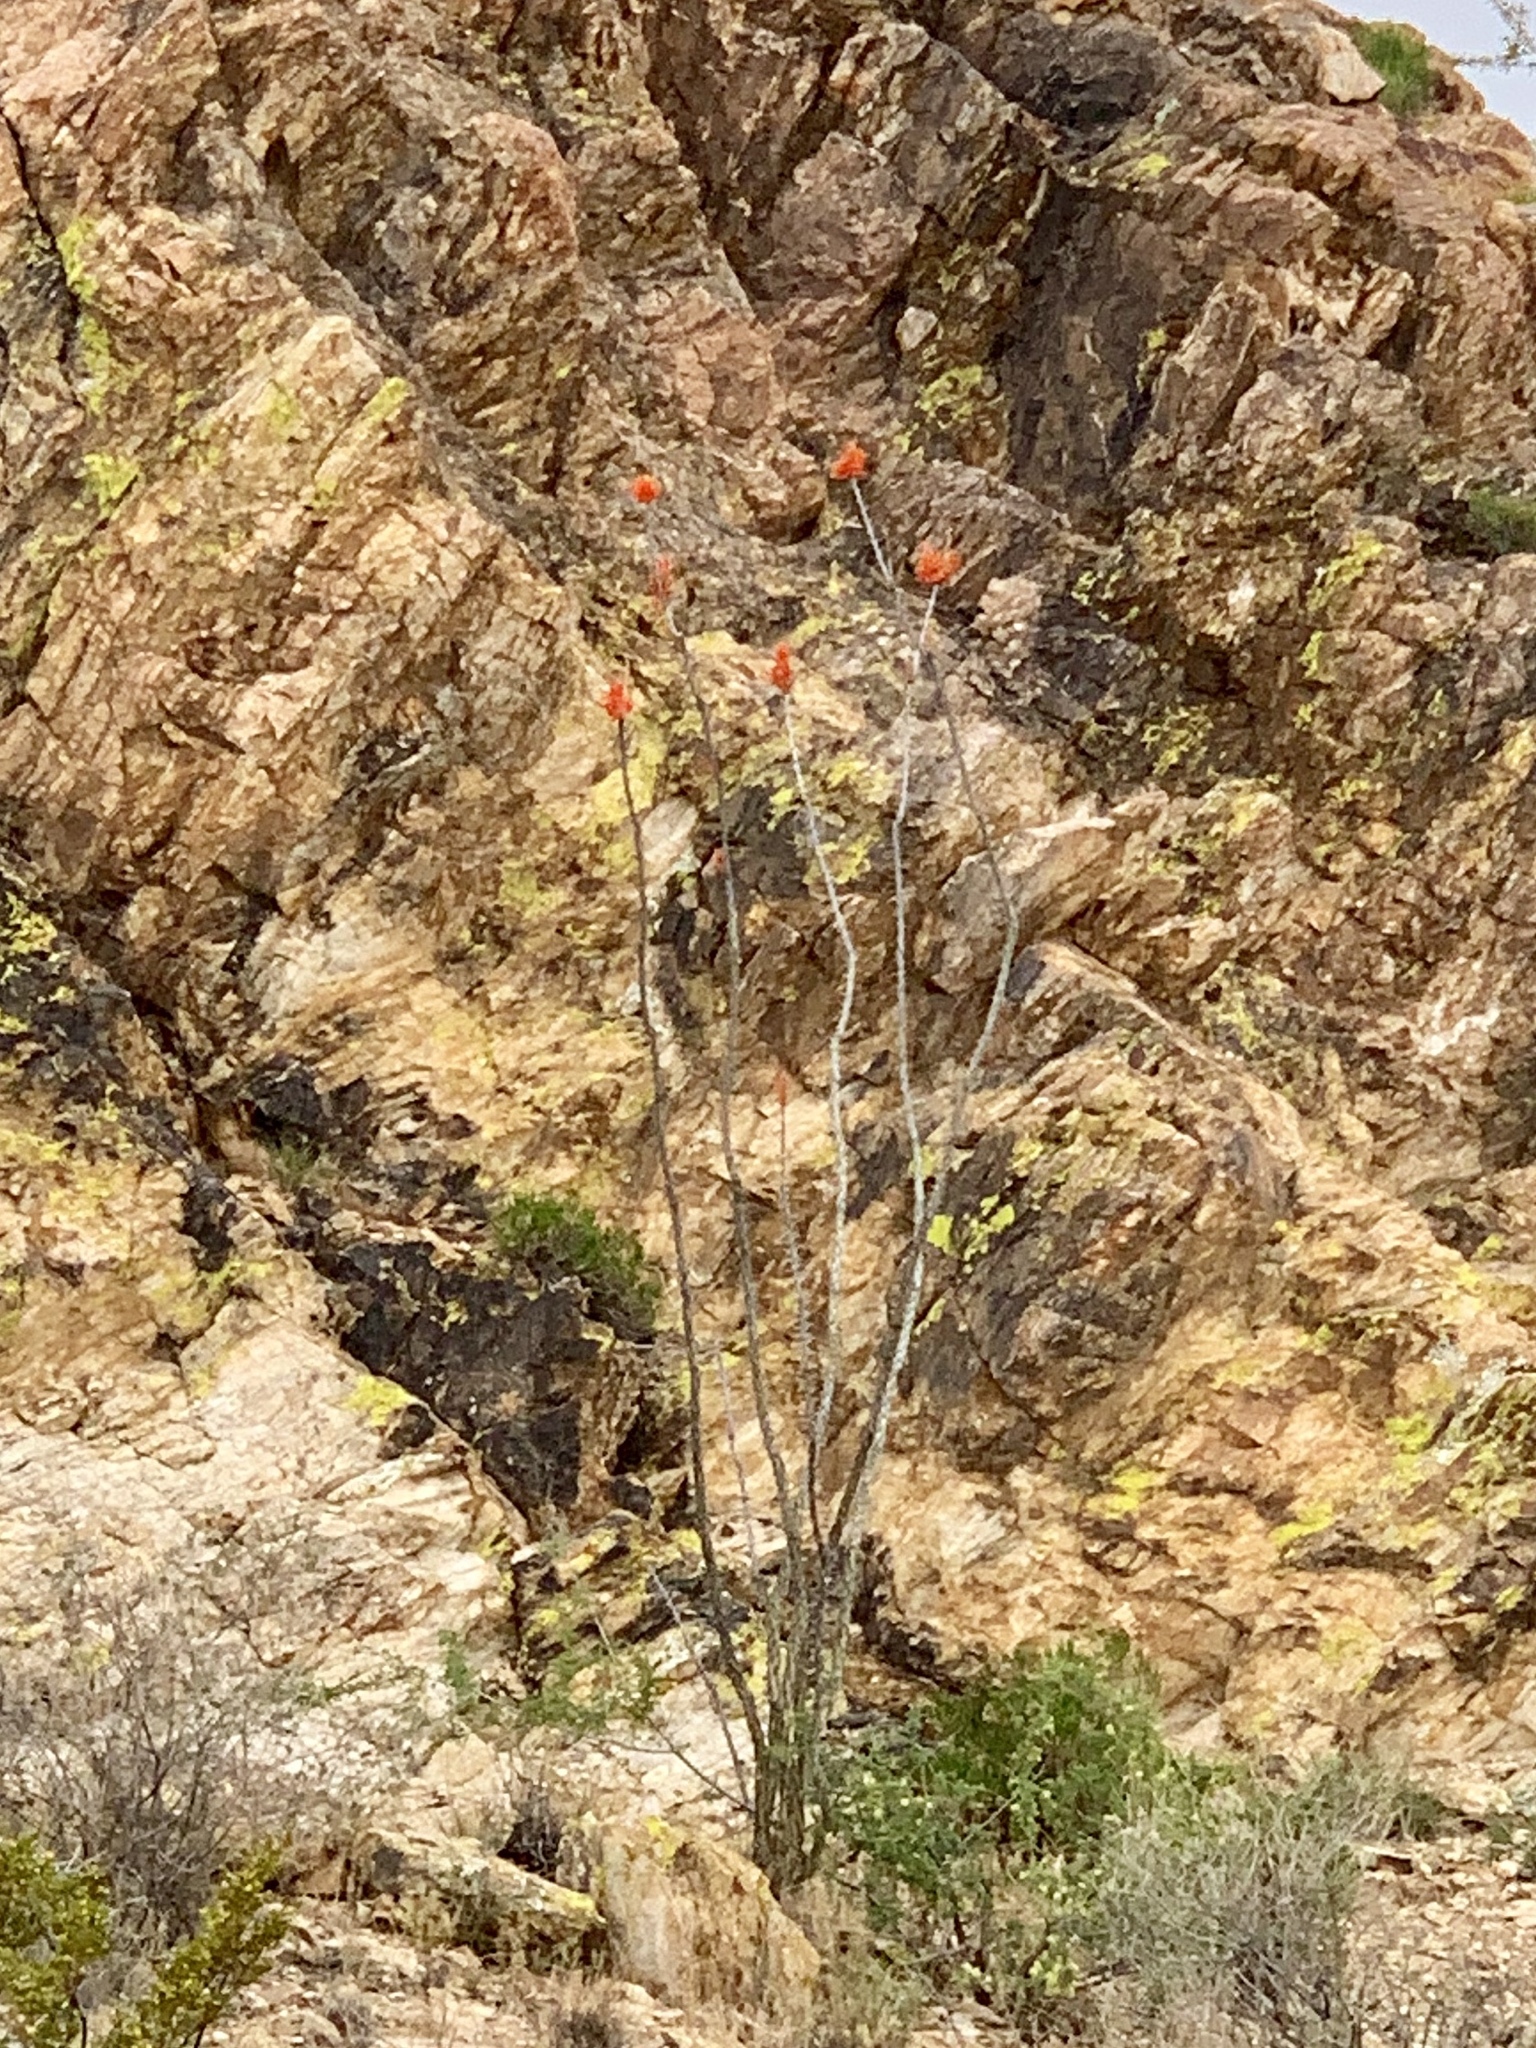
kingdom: Plantae
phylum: Tracheophyta
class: Magnoliopsida
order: Ericales
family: Fouquieriaceae
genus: Fouquieria
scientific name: Fouquieria splendens
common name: Vine-cactus
